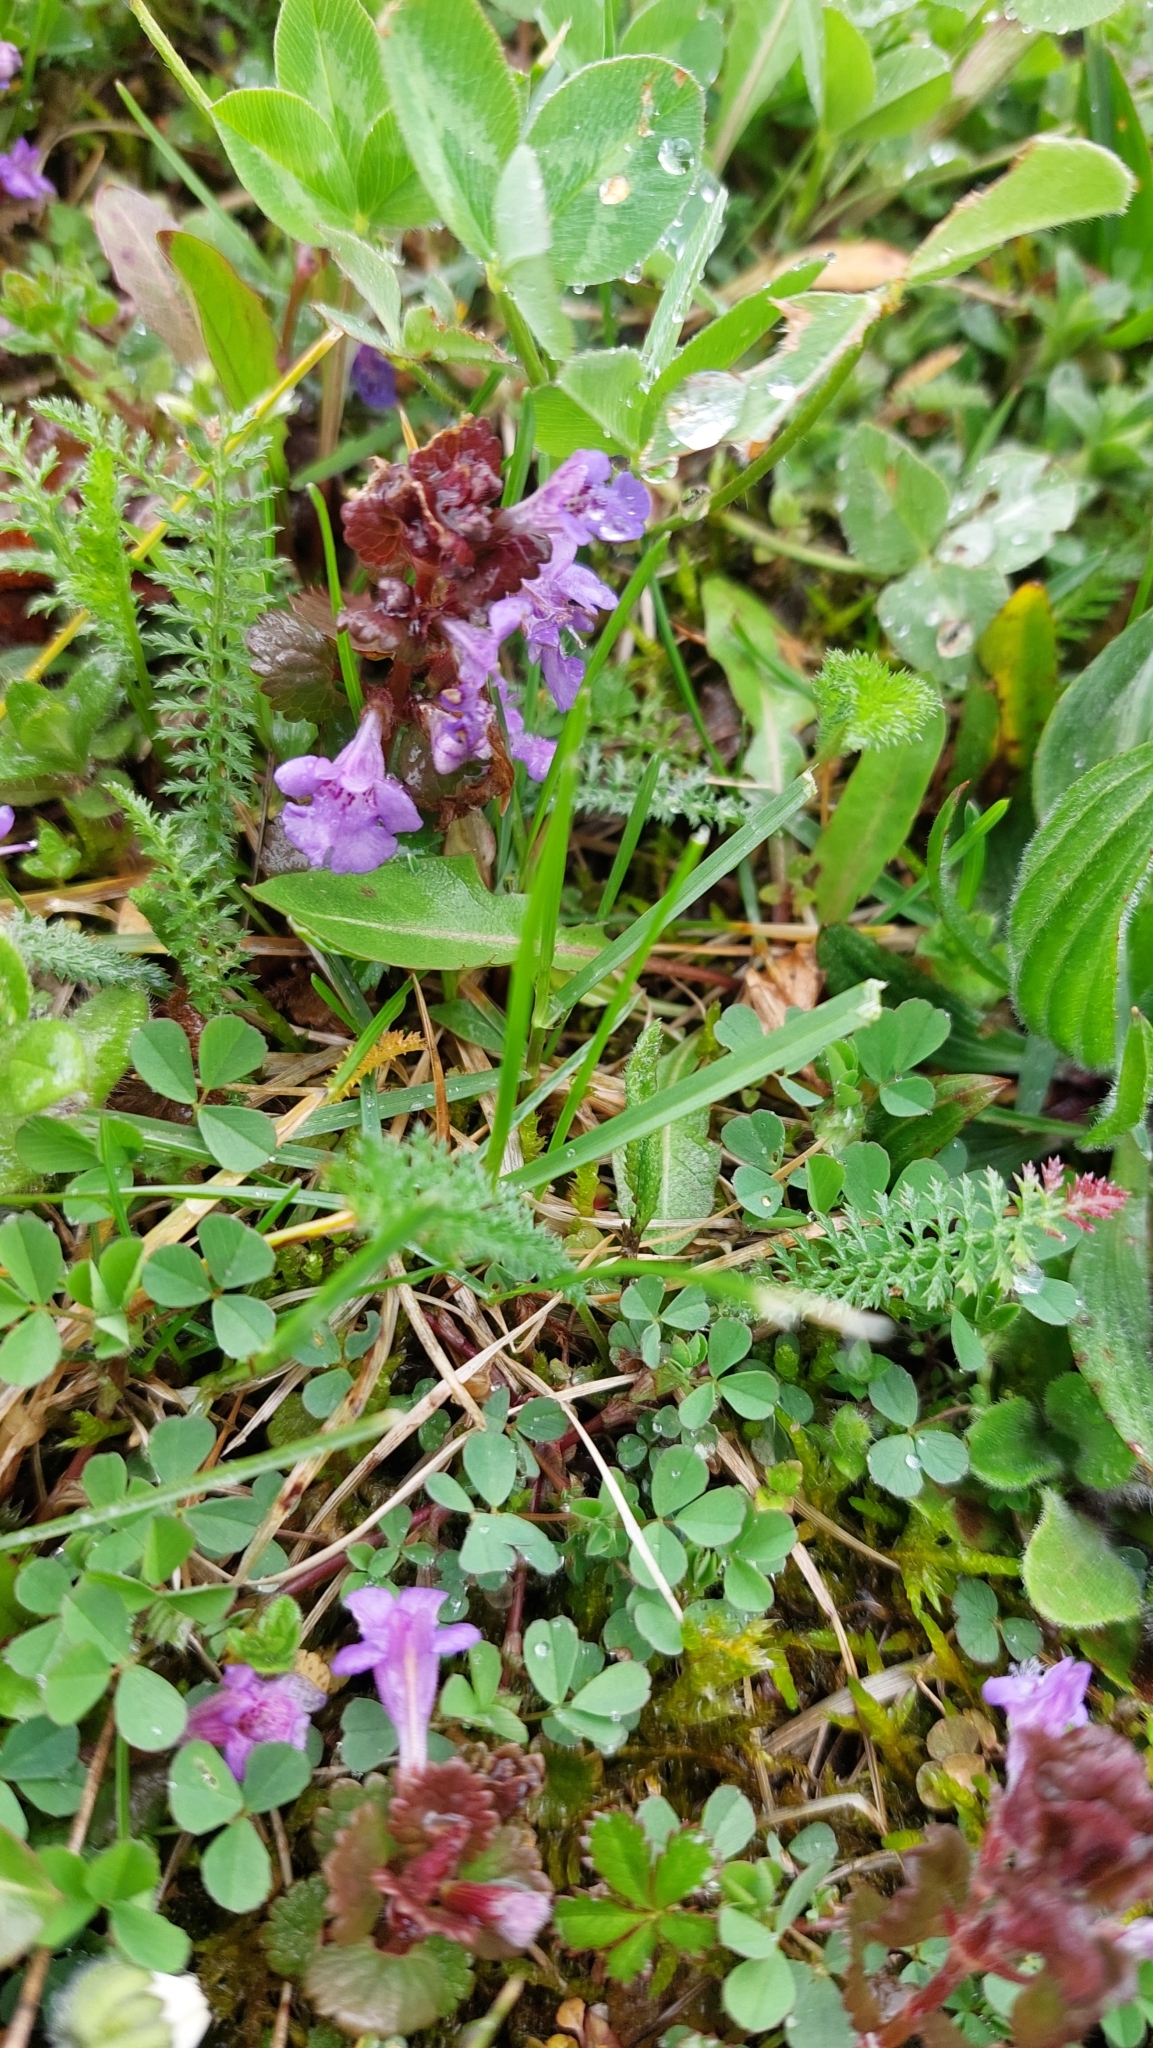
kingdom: Plantae
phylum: Tracheophyta
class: Magnoliopsida
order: Lamiales
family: Lamiaceae
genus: Glechoma
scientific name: Glechoma hederacea
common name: Ground ivy
